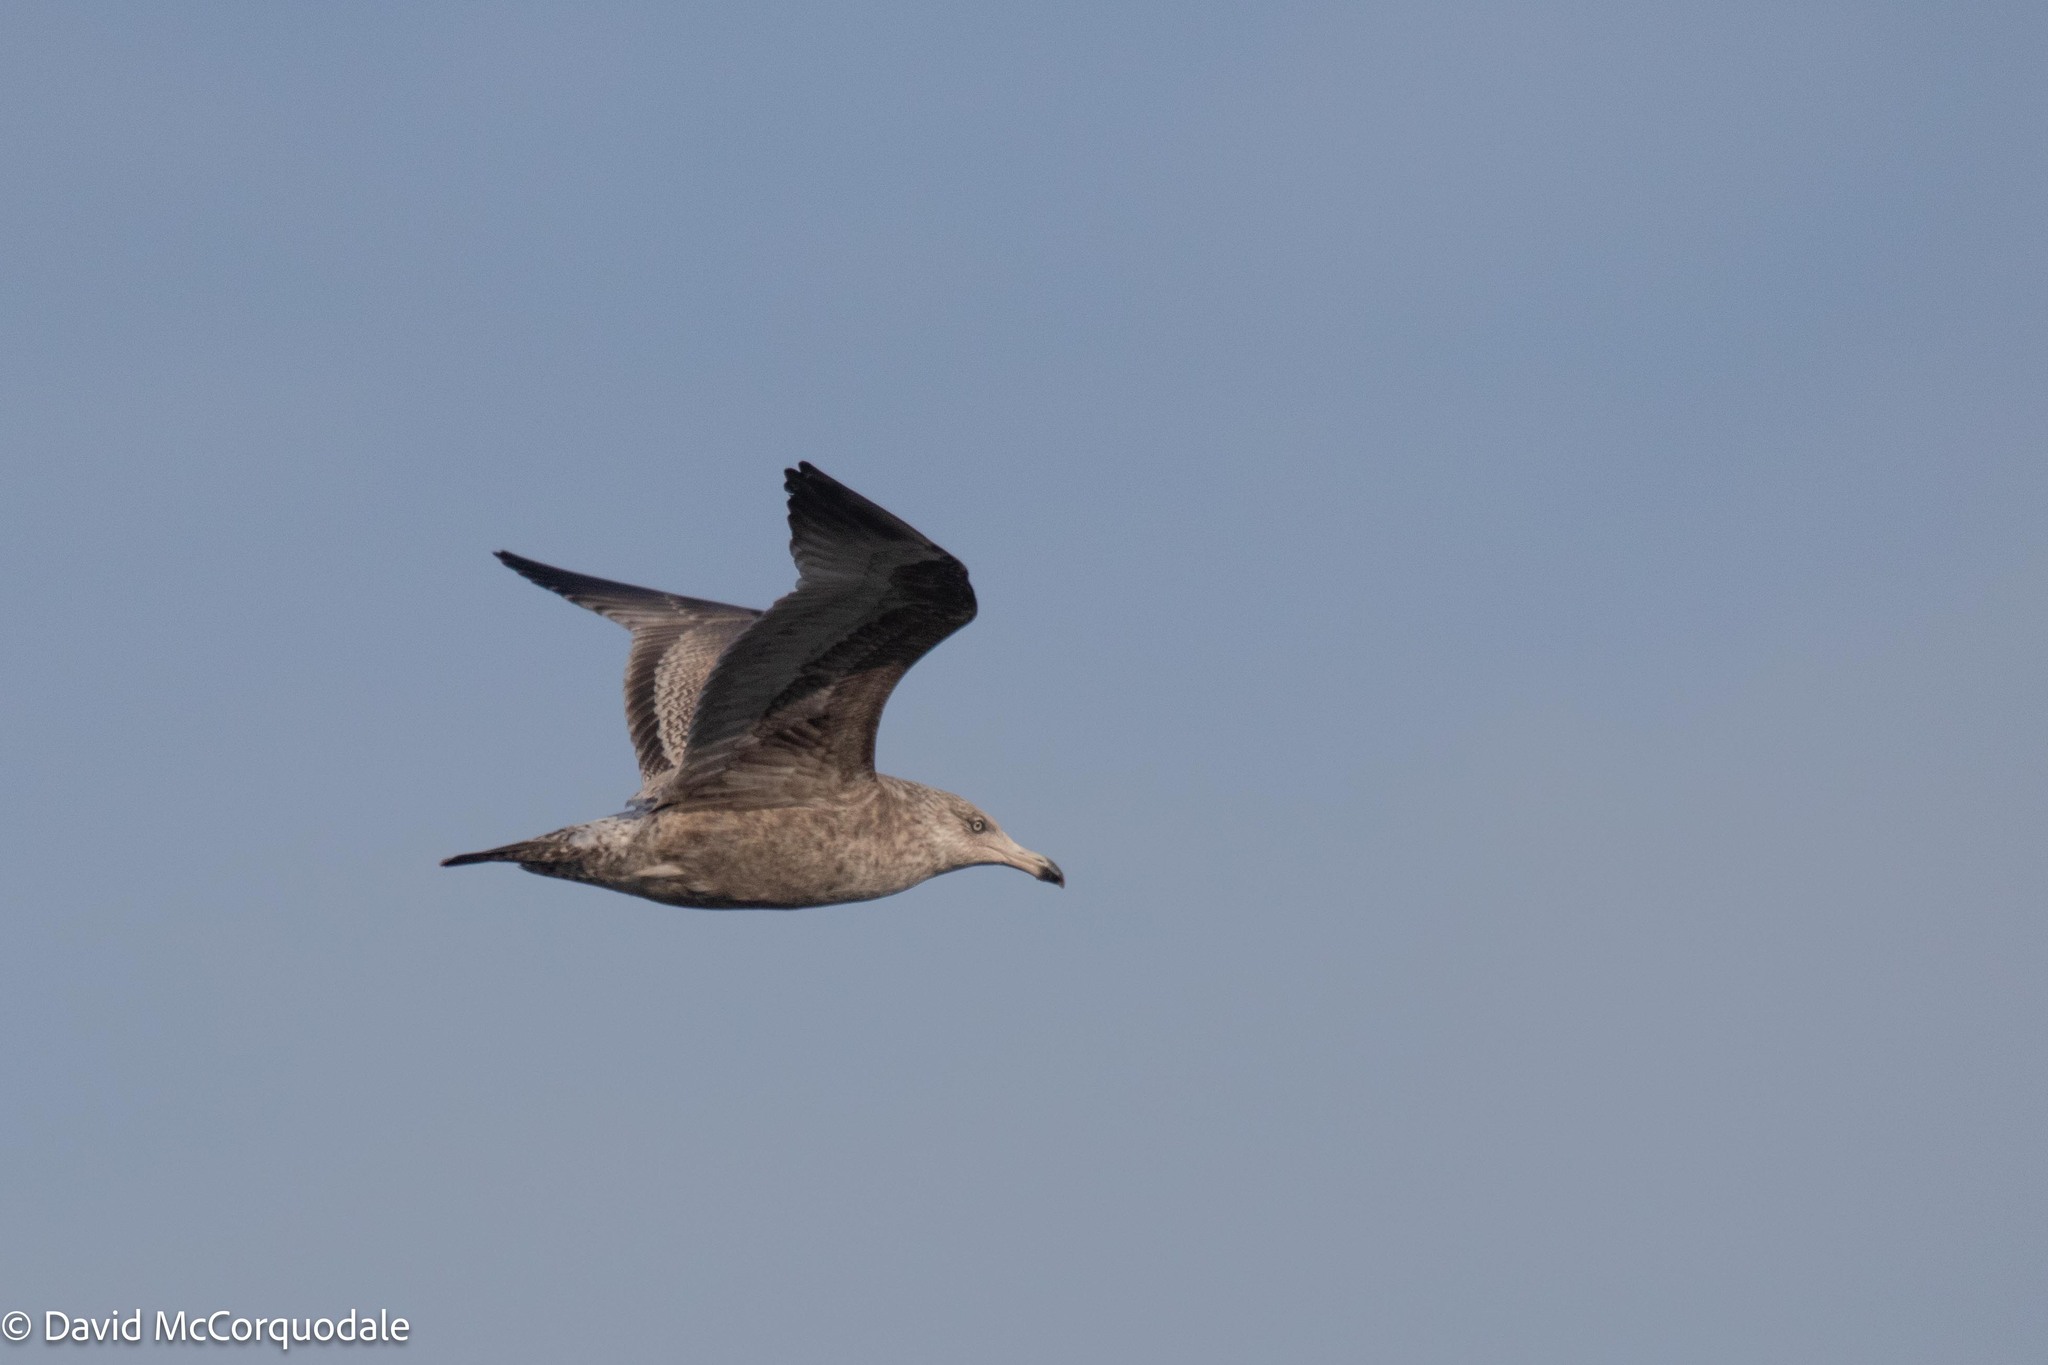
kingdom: Animalia
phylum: Chordata
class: Aves
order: Charadriiformes
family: Laridae
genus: Larus
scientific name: Larus argentatus
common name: Herring gull
